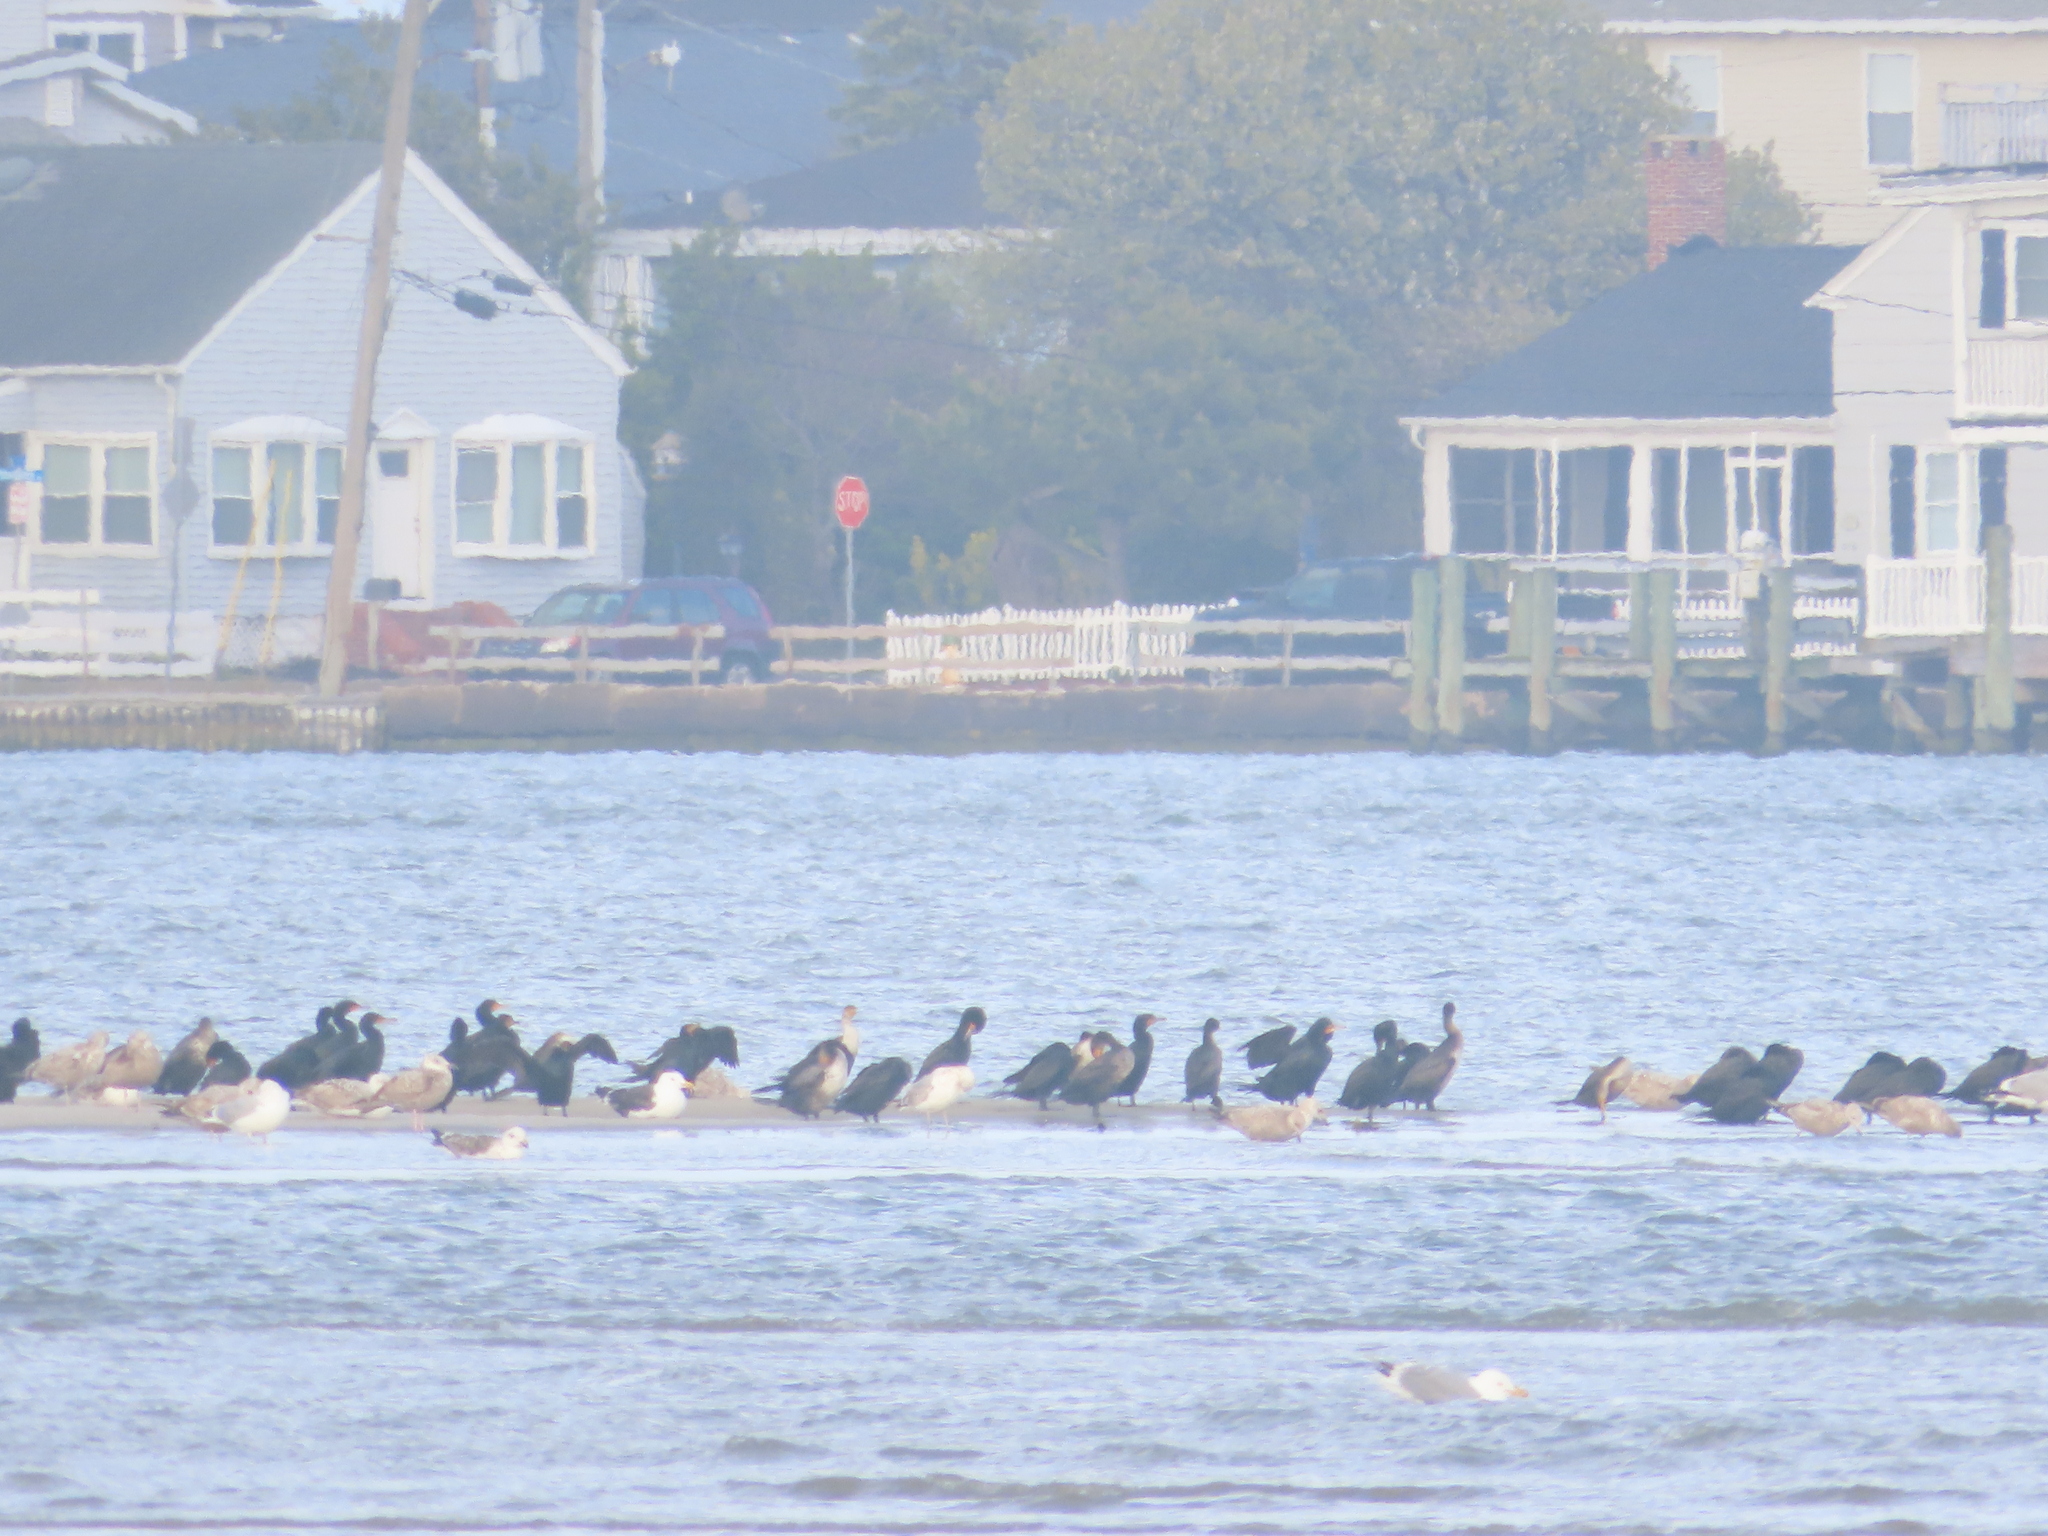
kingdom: Animalia
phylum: Chordata
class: Aves
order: Suliformes
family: Phalacrocoracidae
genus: Phalacrocorax
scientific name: Phalacrocorax auritus
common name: Double-crested cormorant
